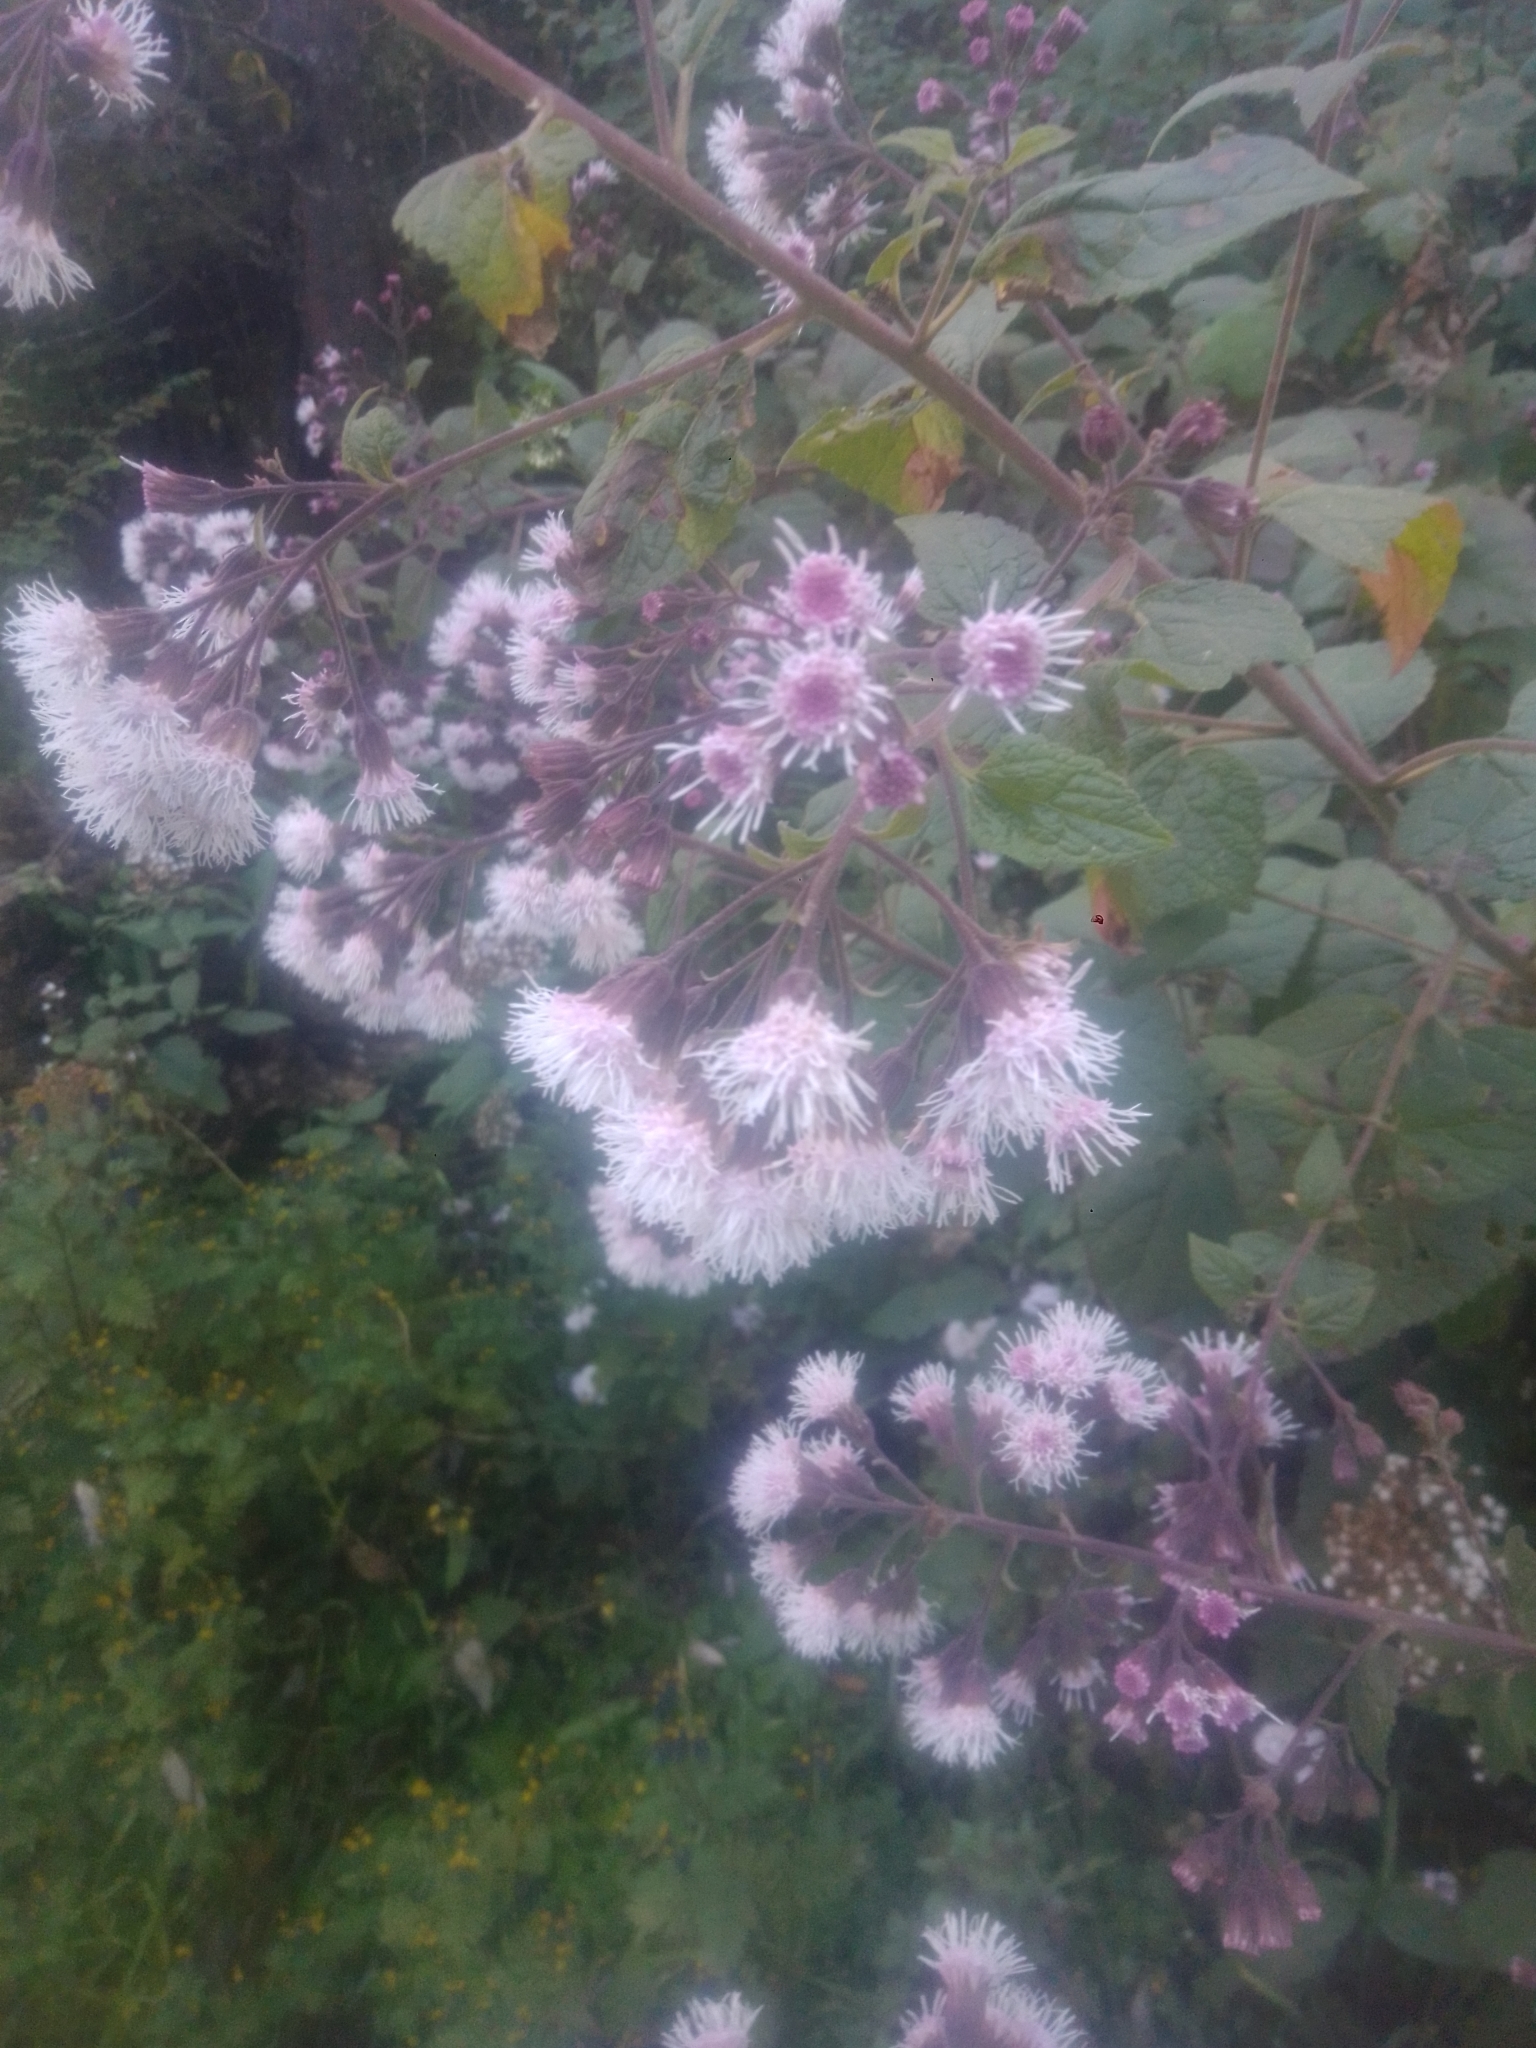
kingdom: Plantae
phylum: Tracheophyta
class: Magnoliopsida
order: Asterales
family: Asteraceae
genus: Ageratina
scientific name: Ageratina deltoidea
